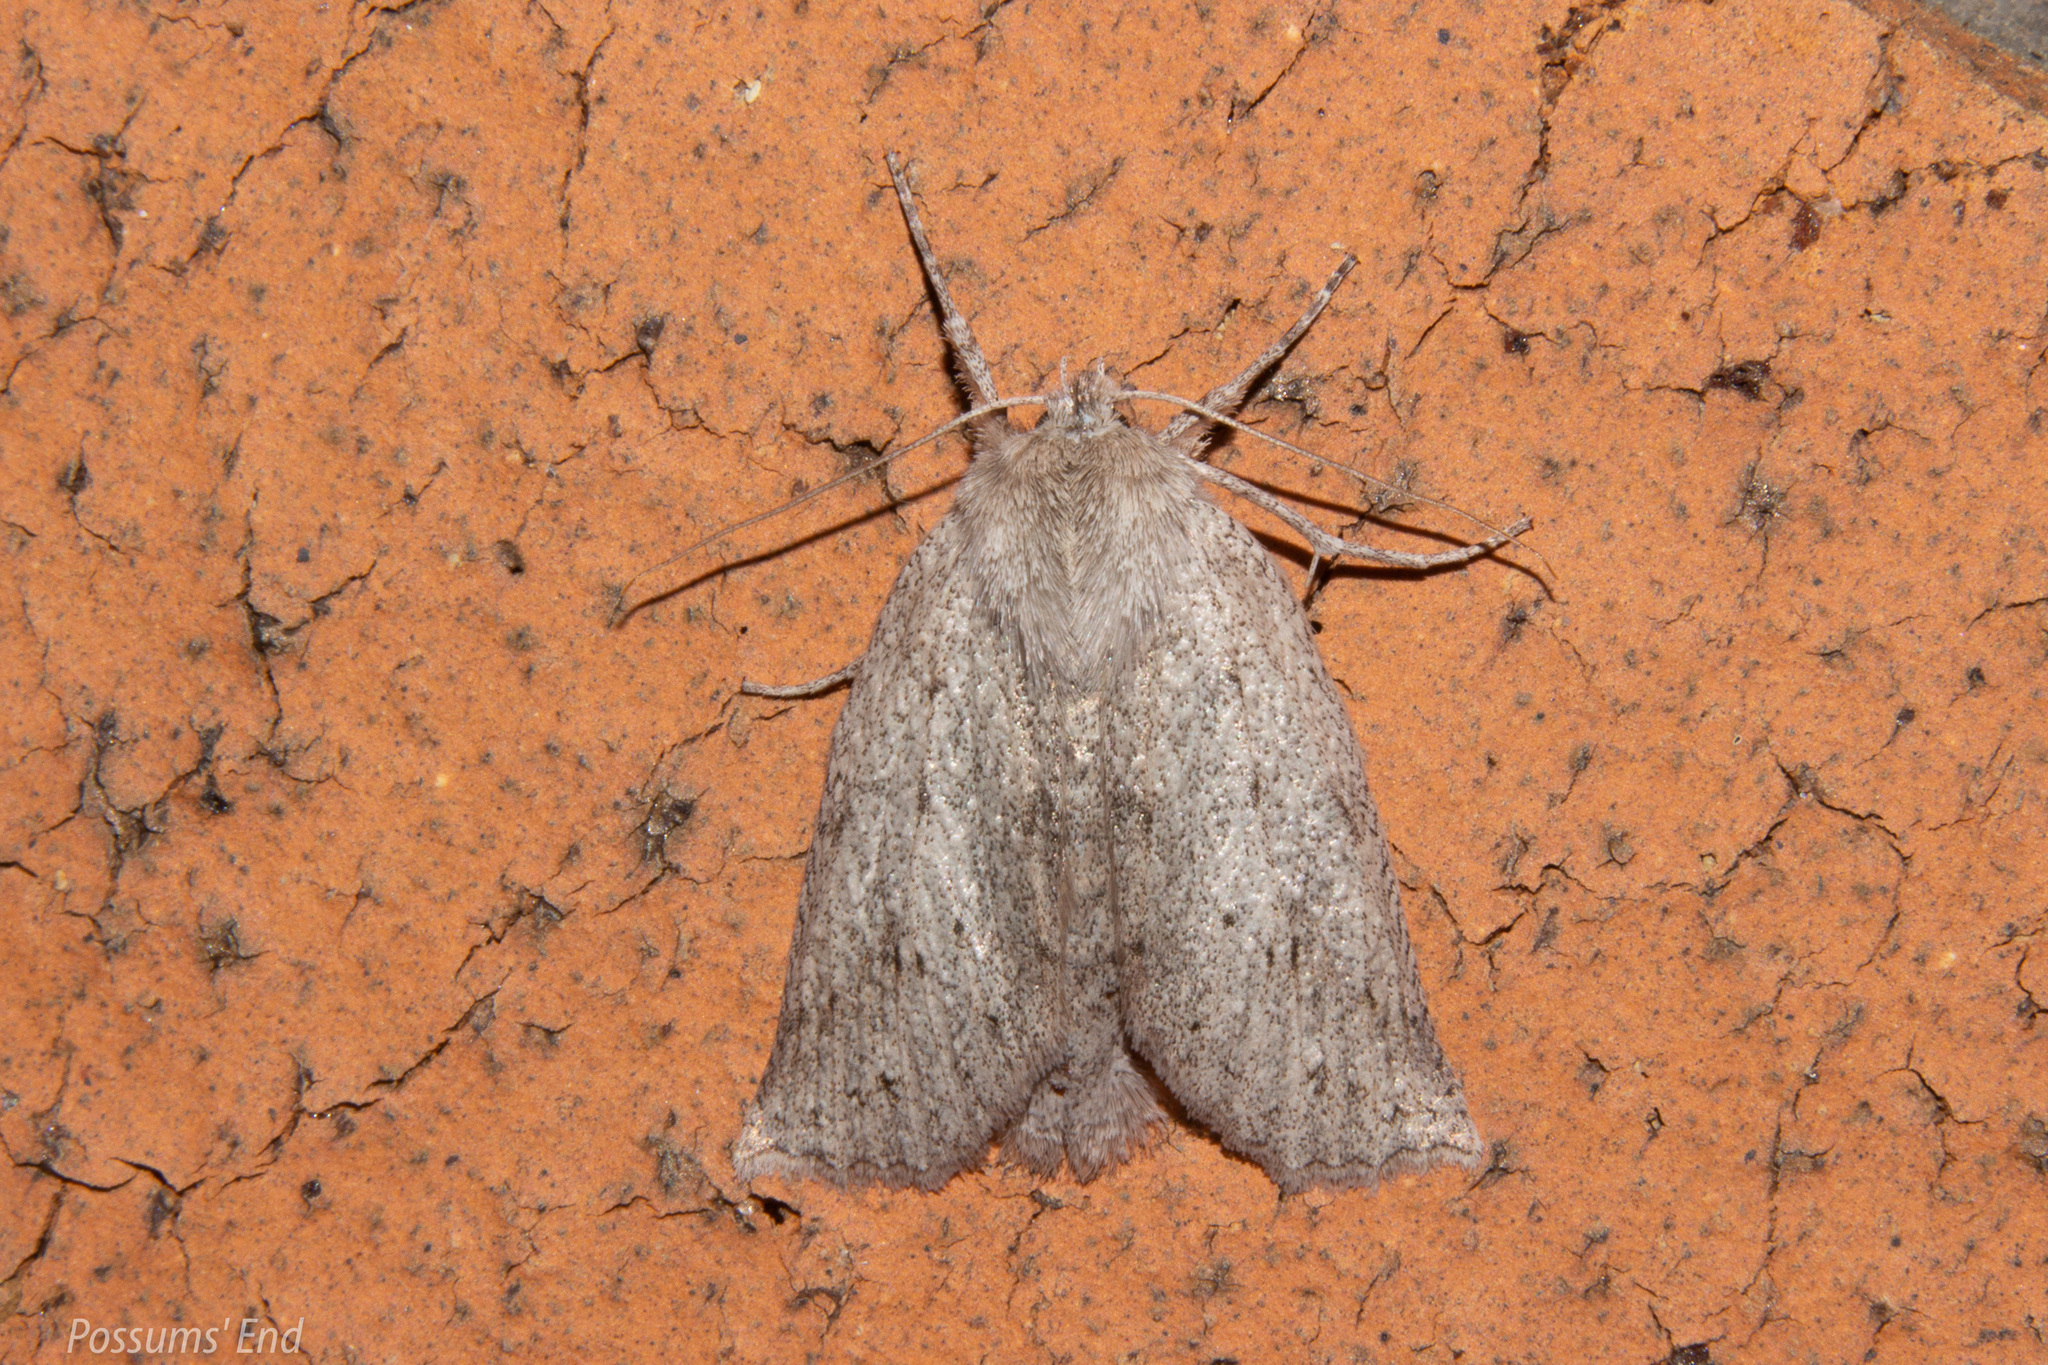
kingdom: Animalia
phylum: Arthropoda
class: Insecta
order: Lepidoptera
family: Geometridae
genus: Declana
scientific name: Declana leptomera
